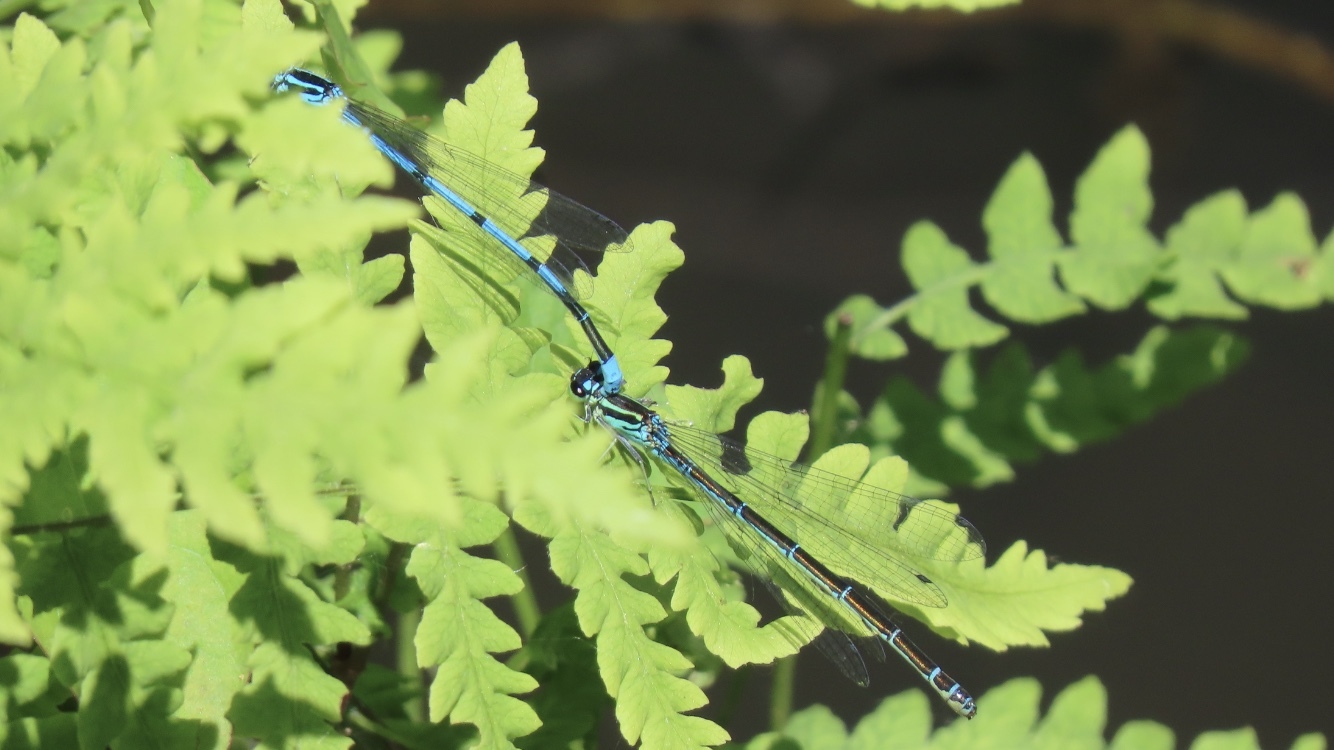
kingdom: Animalia
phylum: Arthropoda
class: Insecta
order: Odonata
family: Coenagrionidae
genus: Coenagrion
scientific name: Coenagrion puella
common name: Azure damselfly
